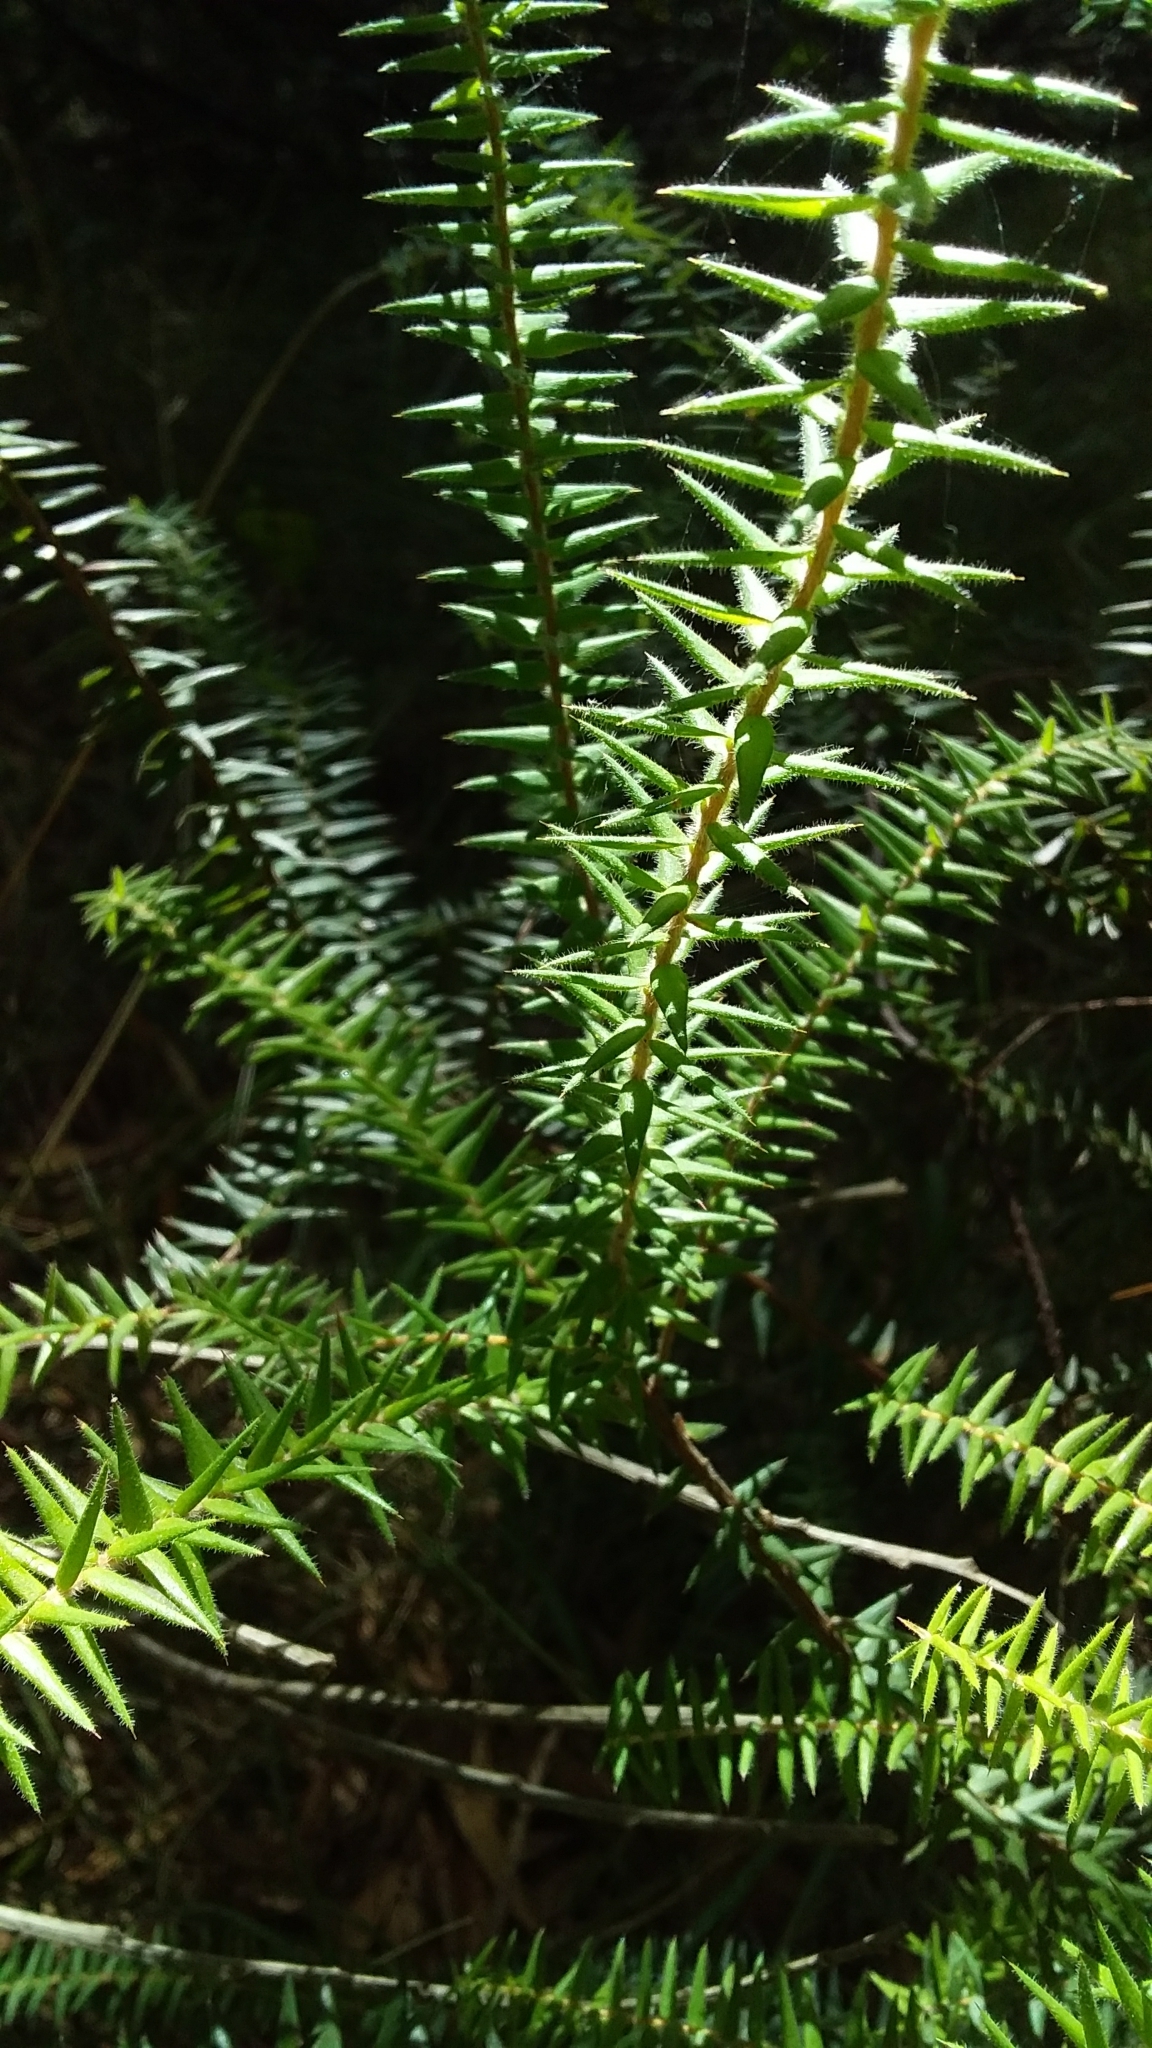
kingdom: Plantae
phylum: Tracheophyta
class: Magnoliopsida
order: Ericales
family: Ericaceae
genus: Acrotriche
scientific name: Acrotriche fasciculiflora
